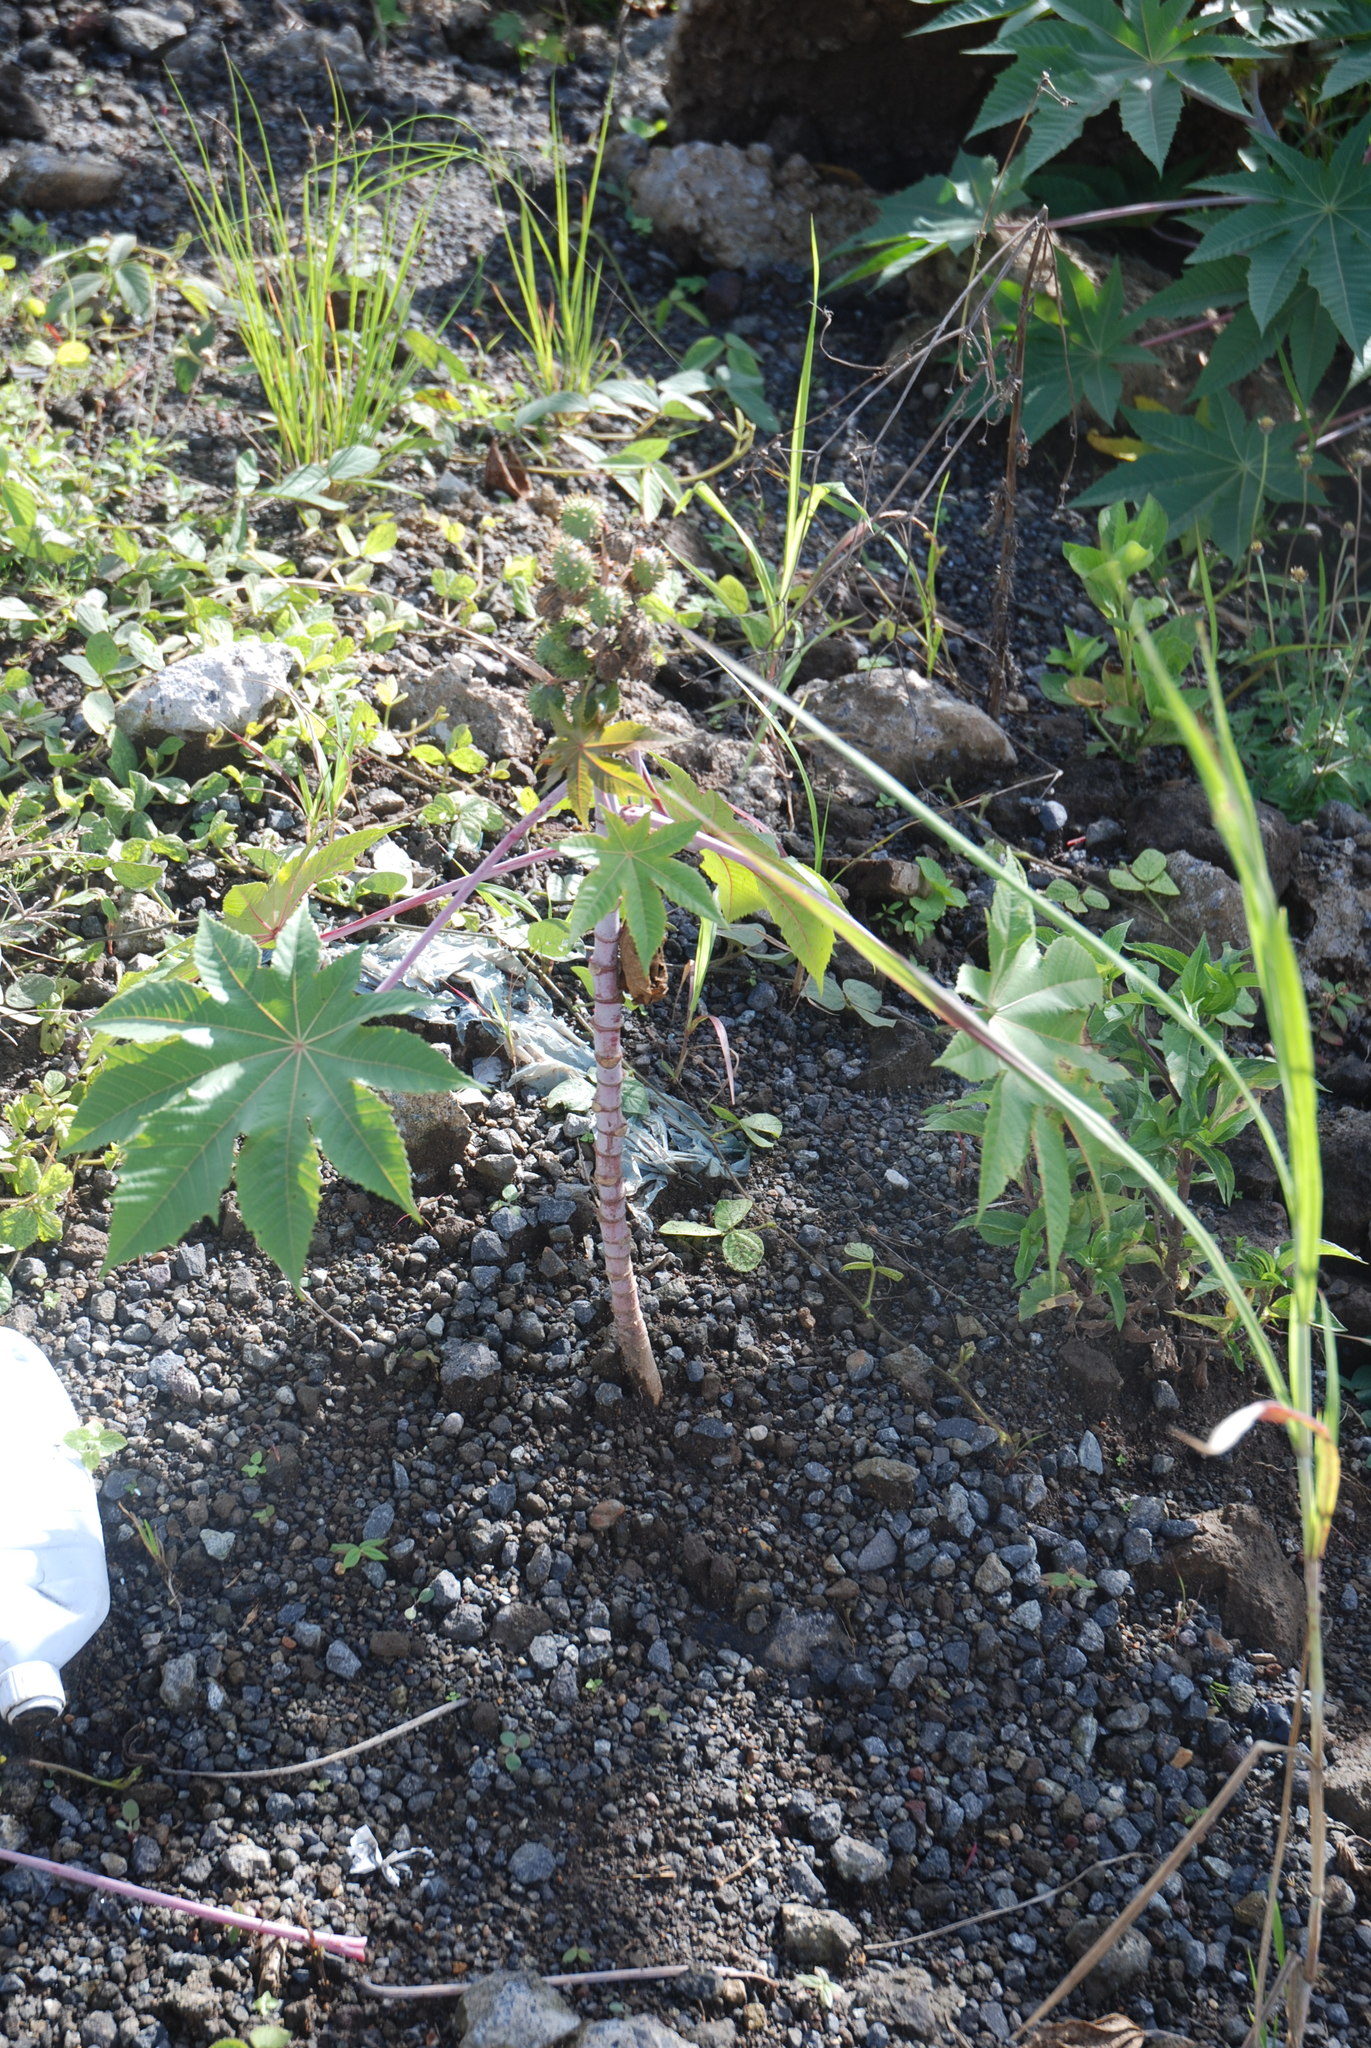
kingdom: Plantae
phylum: Tracheophyta
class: Magnoliopsida
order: Malpighiales
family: Euphorbiaceae
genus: Ricinus
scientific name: Ricinus communis
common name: Castor-oil-plant
